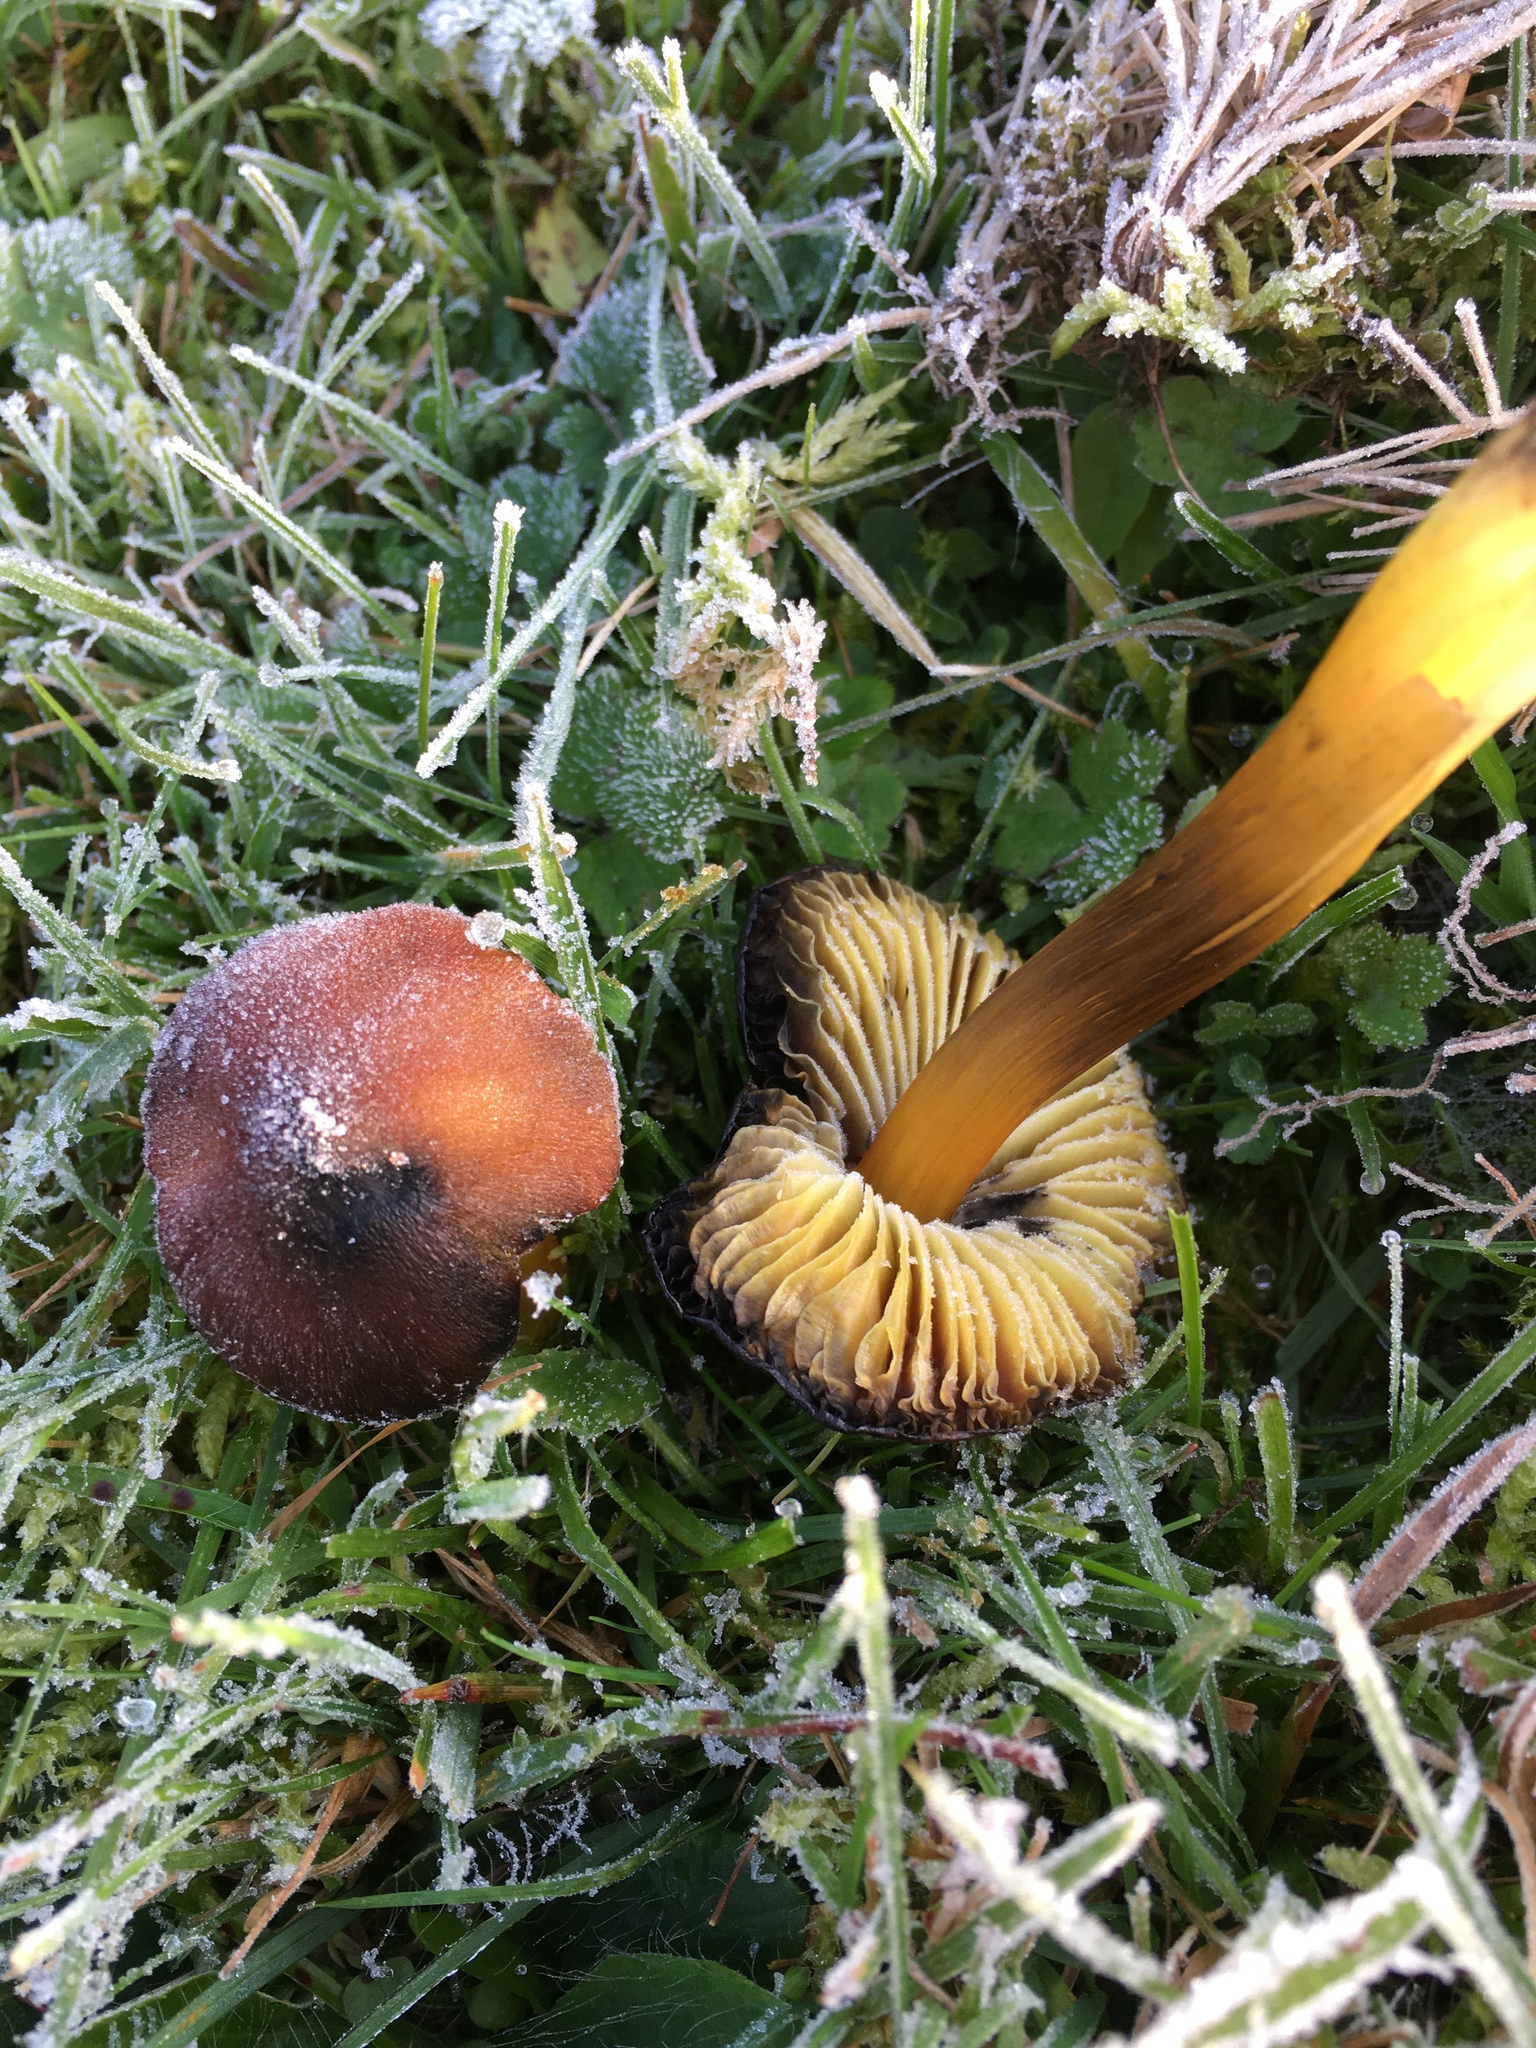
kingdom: Fungi
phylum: Basidiomycota
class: Agaricomycetes
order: Agaricales
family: Hygrophoraceae
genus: Hygrocybe
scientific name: Hygrocybe conica
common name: Blackening wax-cap
